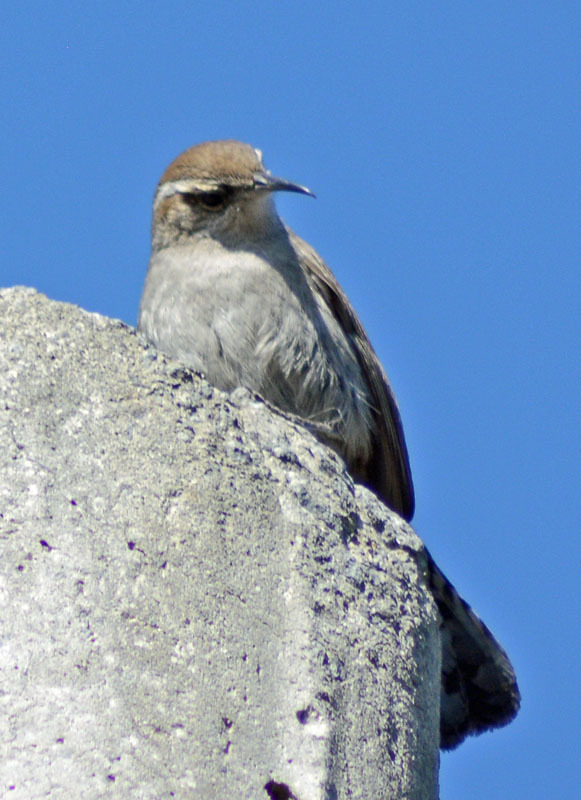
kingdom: Animalia
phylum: Chordata
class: Aves
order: Passeriformes
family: Troglodytidae
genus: Thryomanes
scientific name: Thryomanes bewickii
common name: Bewick's wren
